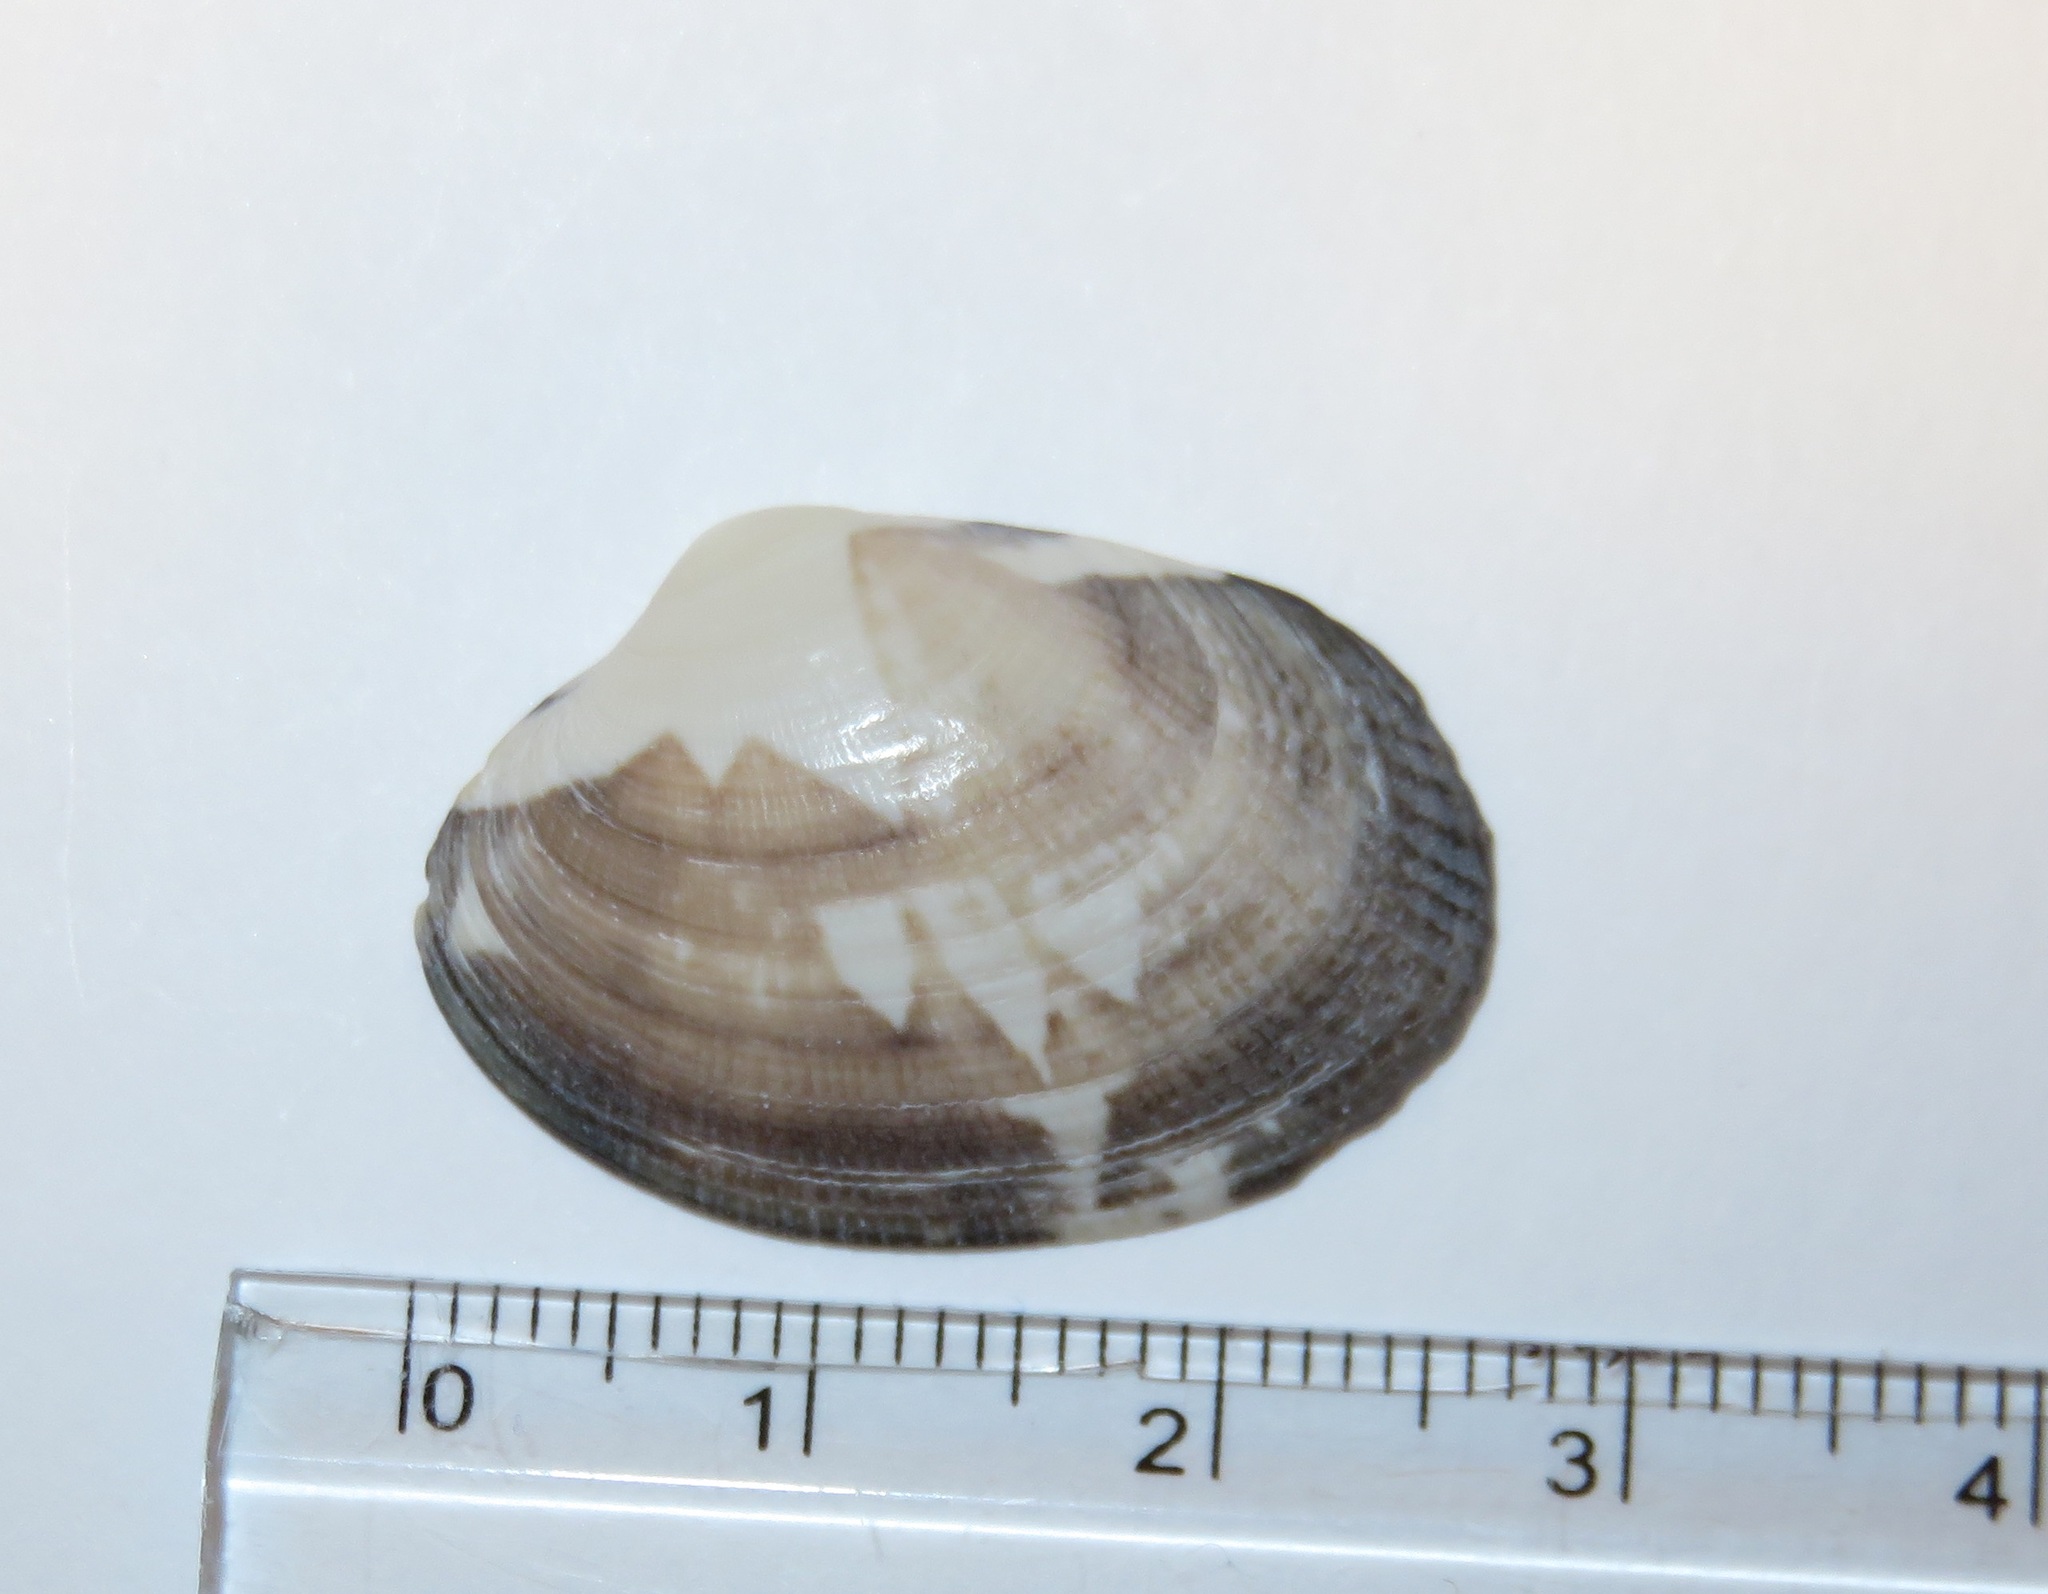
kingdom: Animalia
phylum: Mollusca
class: Bivalvia
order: Venerida
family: Veneridae
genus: Ruditapes
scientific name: Ruditapes philippinarum
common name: Manila clam
